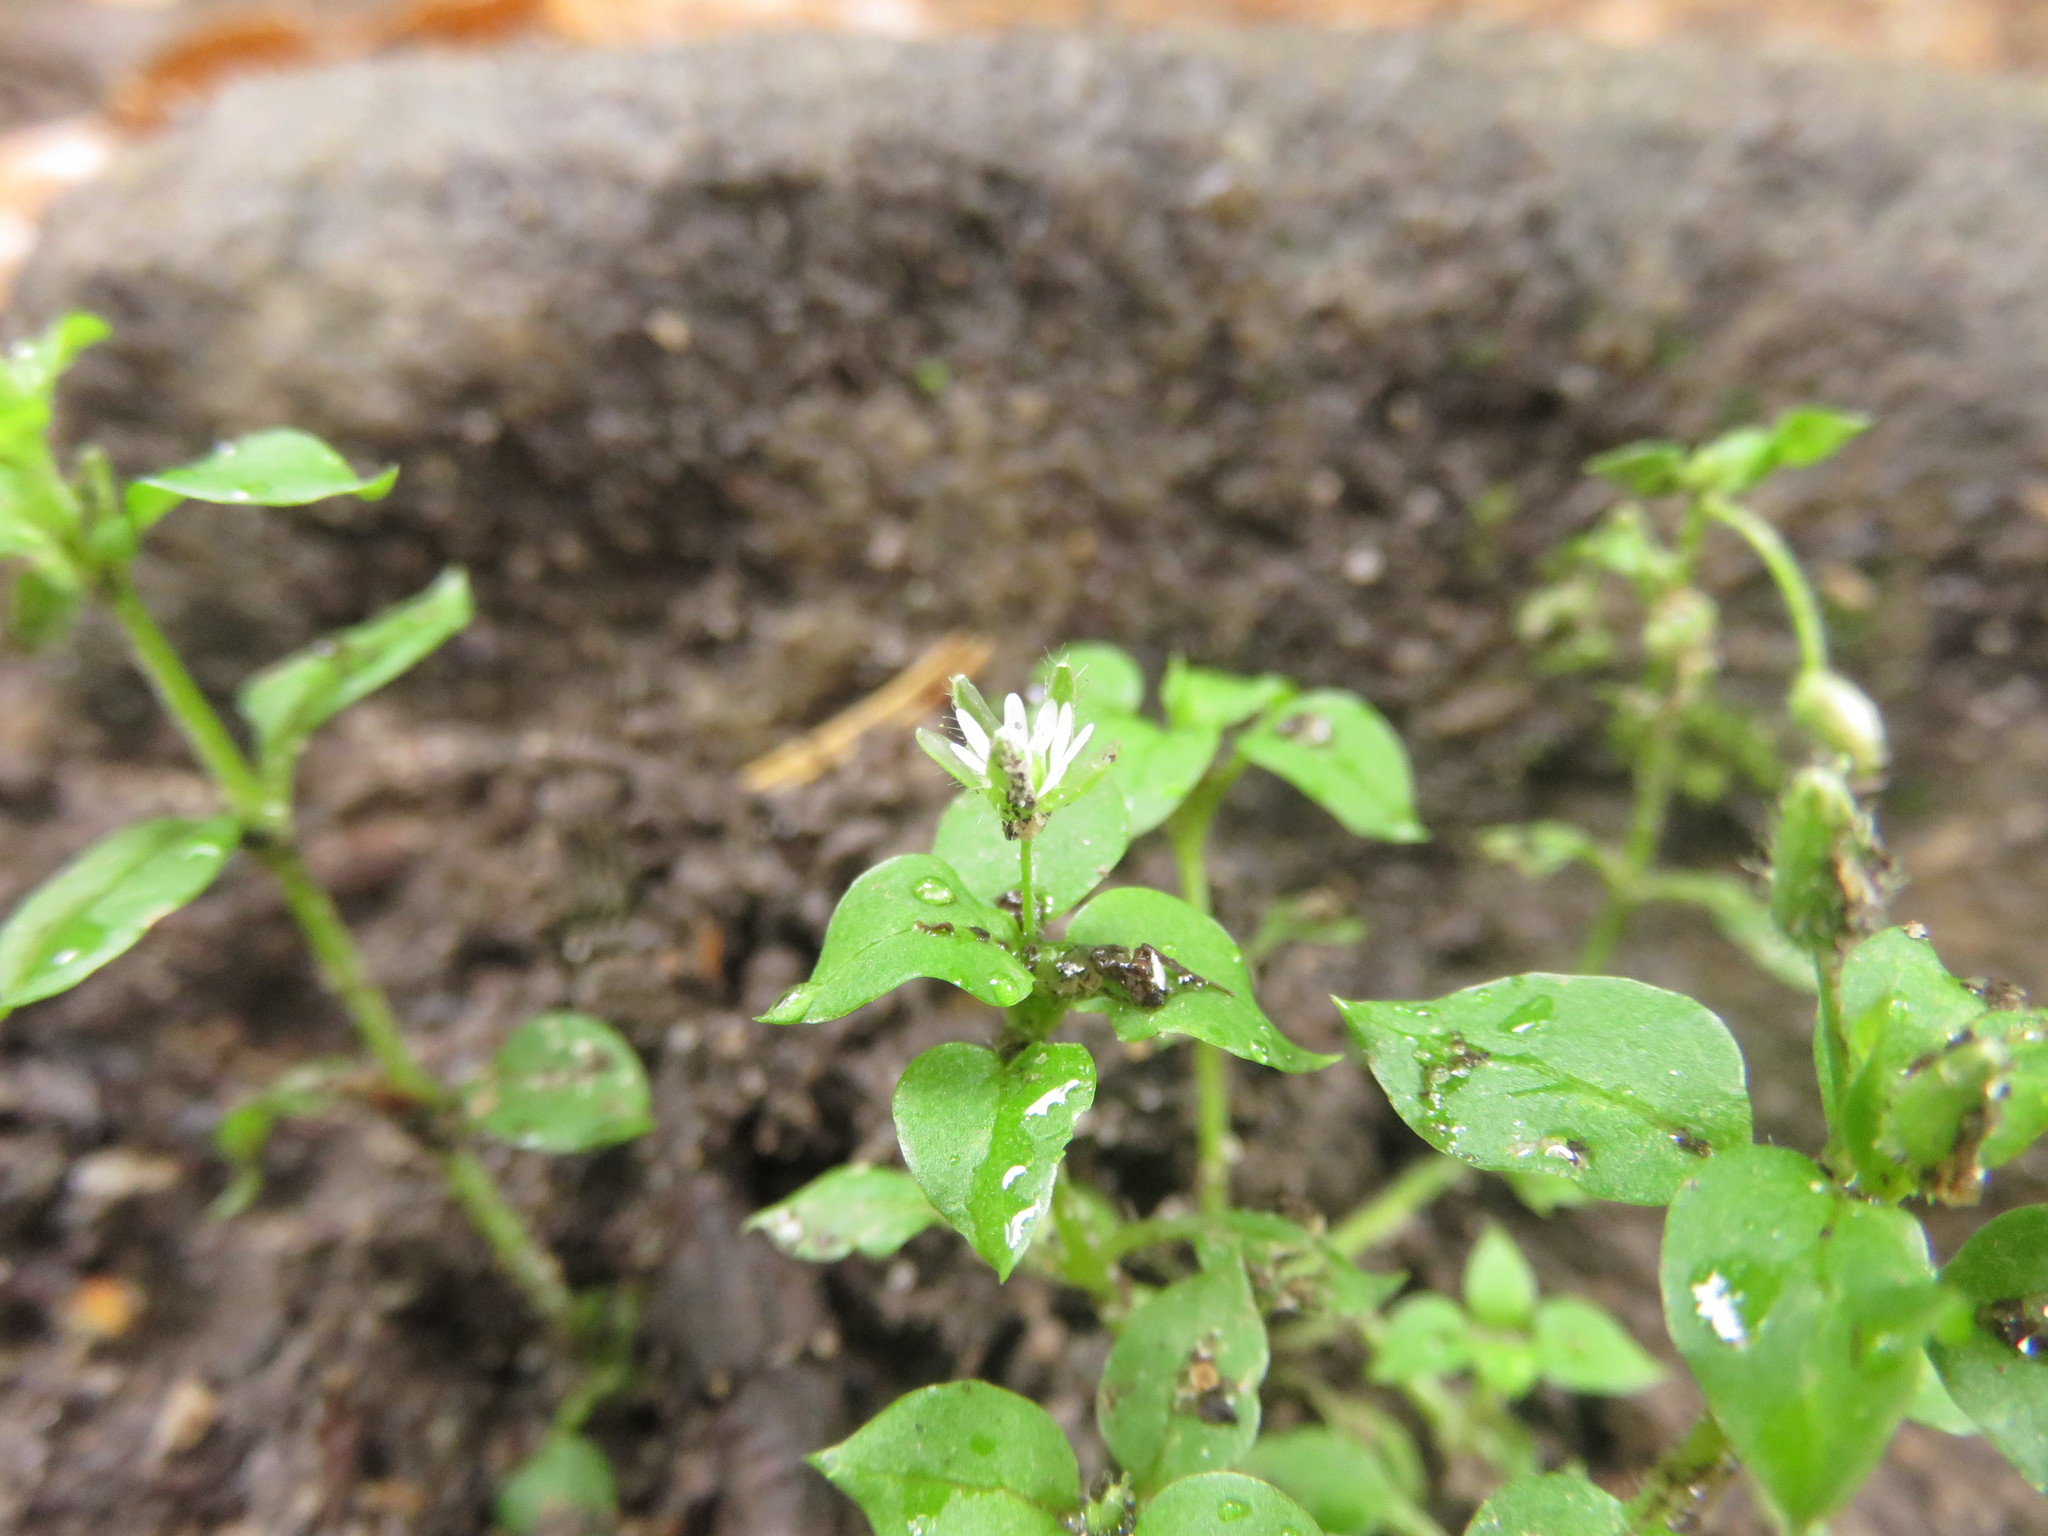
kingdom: Plantae
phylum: Tracheophyta
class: Magnoliopsida
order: Caryophyllales
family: Caryophyllaceae
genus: Stellaria
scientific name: Stellaria media
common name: Common chickweed
